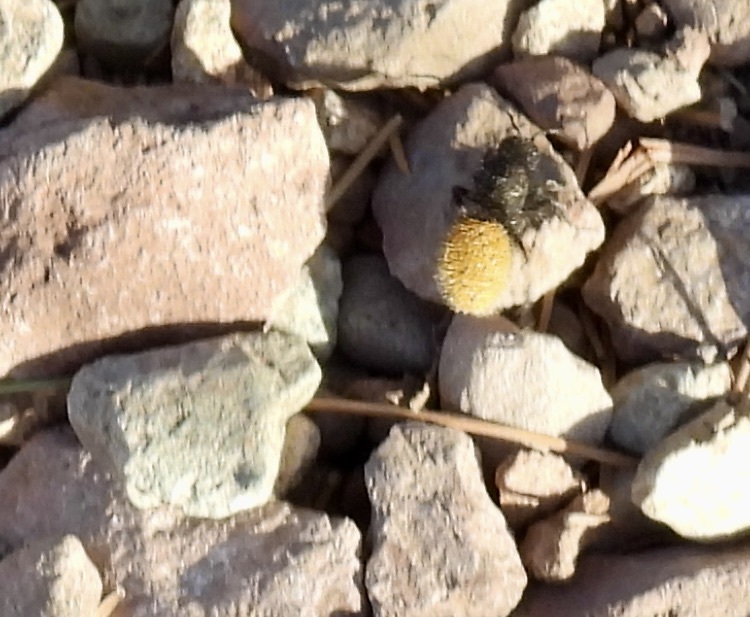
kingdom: Animalia
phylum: Arthropoda
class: Insecta
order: Hymenoptera
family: Mutillidae
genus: Dasymutilla
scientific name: Dasymutilla vestita
